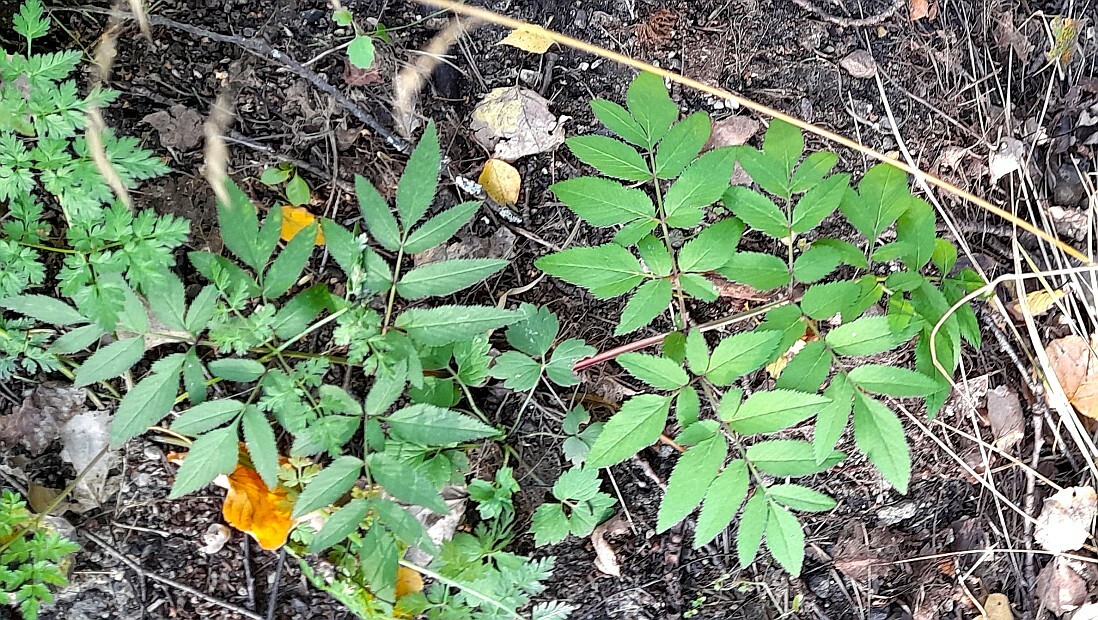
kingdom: Plantae
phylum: Tracheophyta
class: Magnoliopsida
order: Apiales
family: Apiaceae
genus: Angelica
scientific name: Angelica sylvestris
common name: Wild angelica
